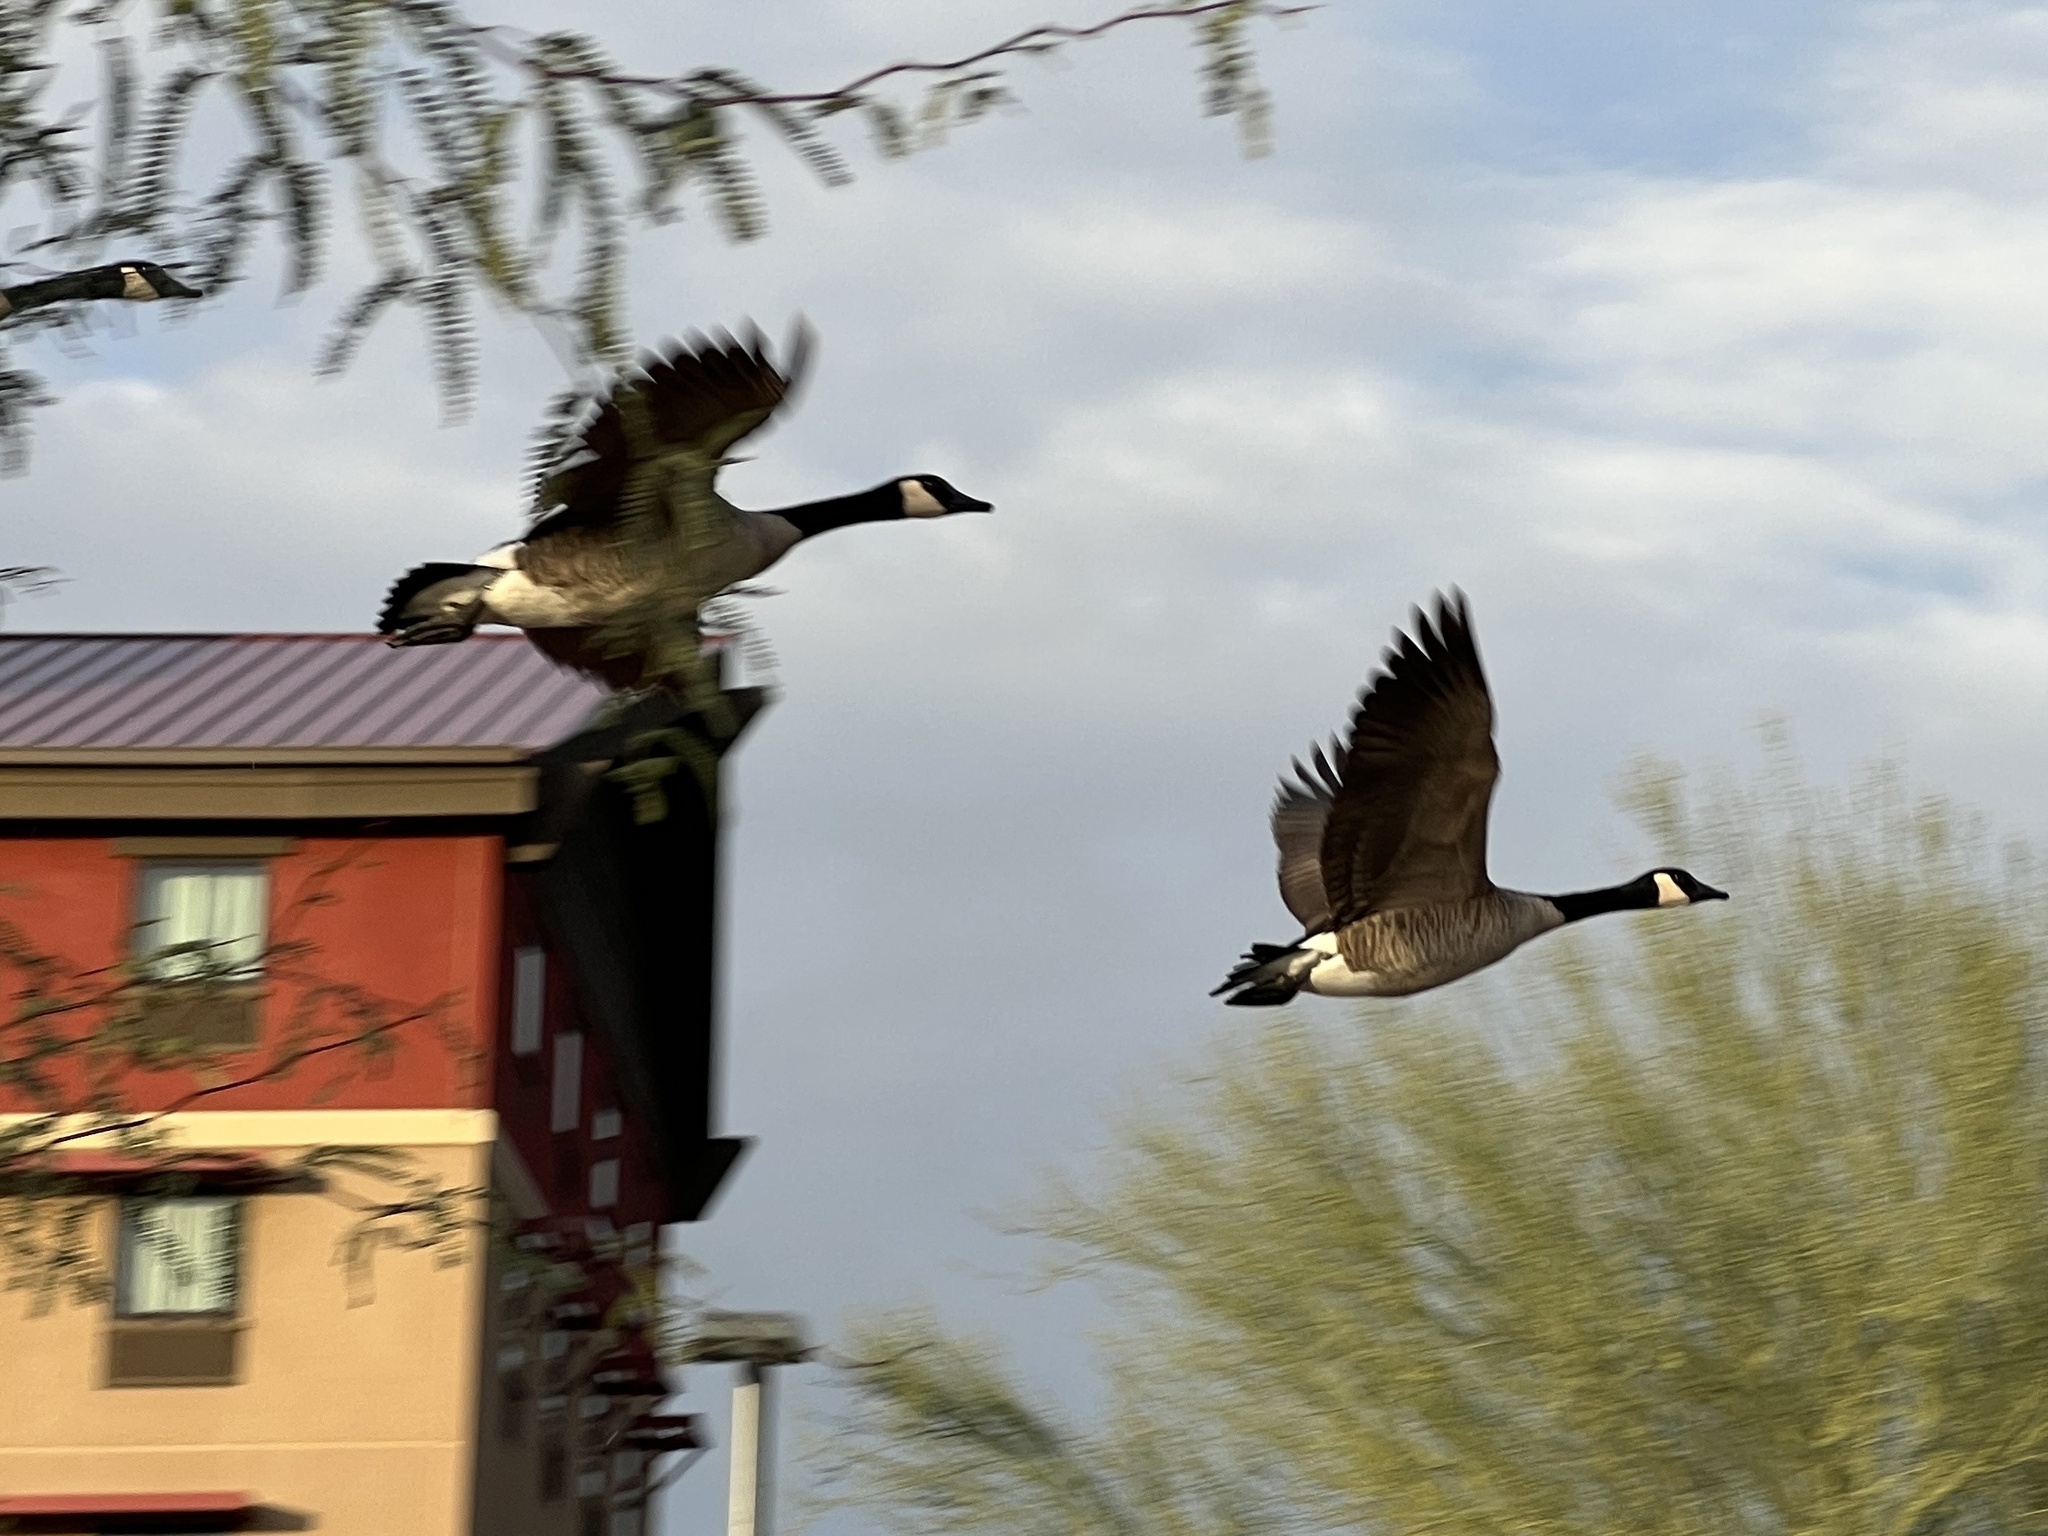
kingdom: Animalia
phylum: Chordata
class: Aves
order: Anseriformes
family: Anatidae
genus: Branta
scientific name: Branta canadensis
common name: Canada goose
